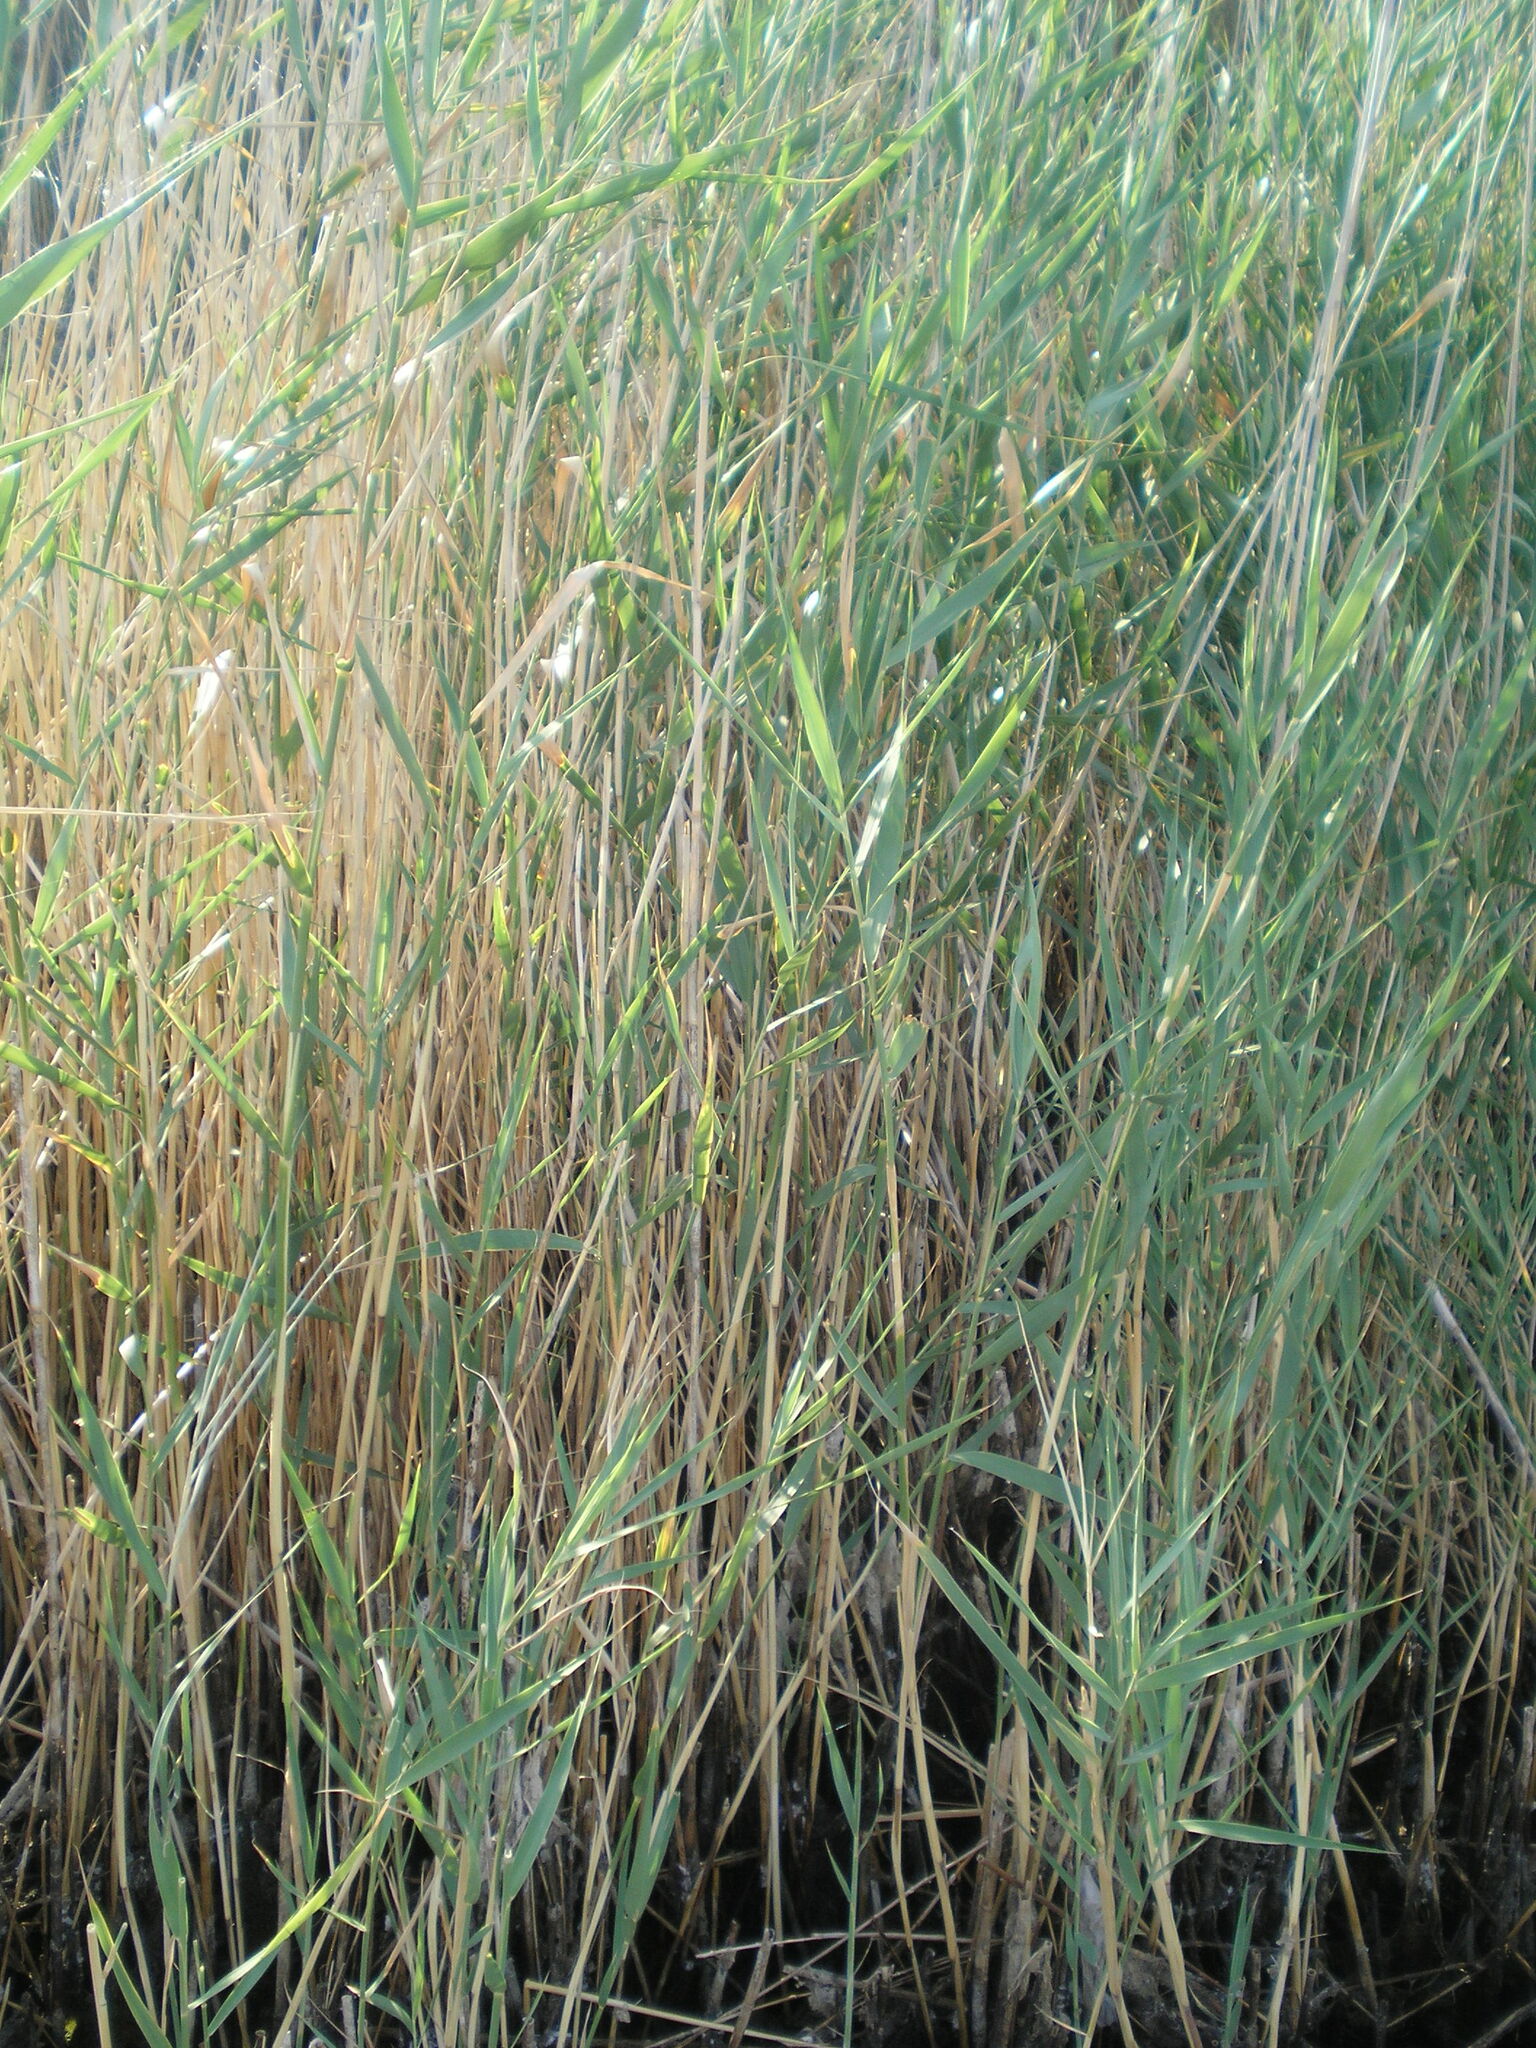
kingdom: Plantae
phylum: Tracheophyta
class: Liliopsida
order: Poales
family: Poaceae
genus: Phragmites
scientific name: Phragmites australis
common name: Common reed
